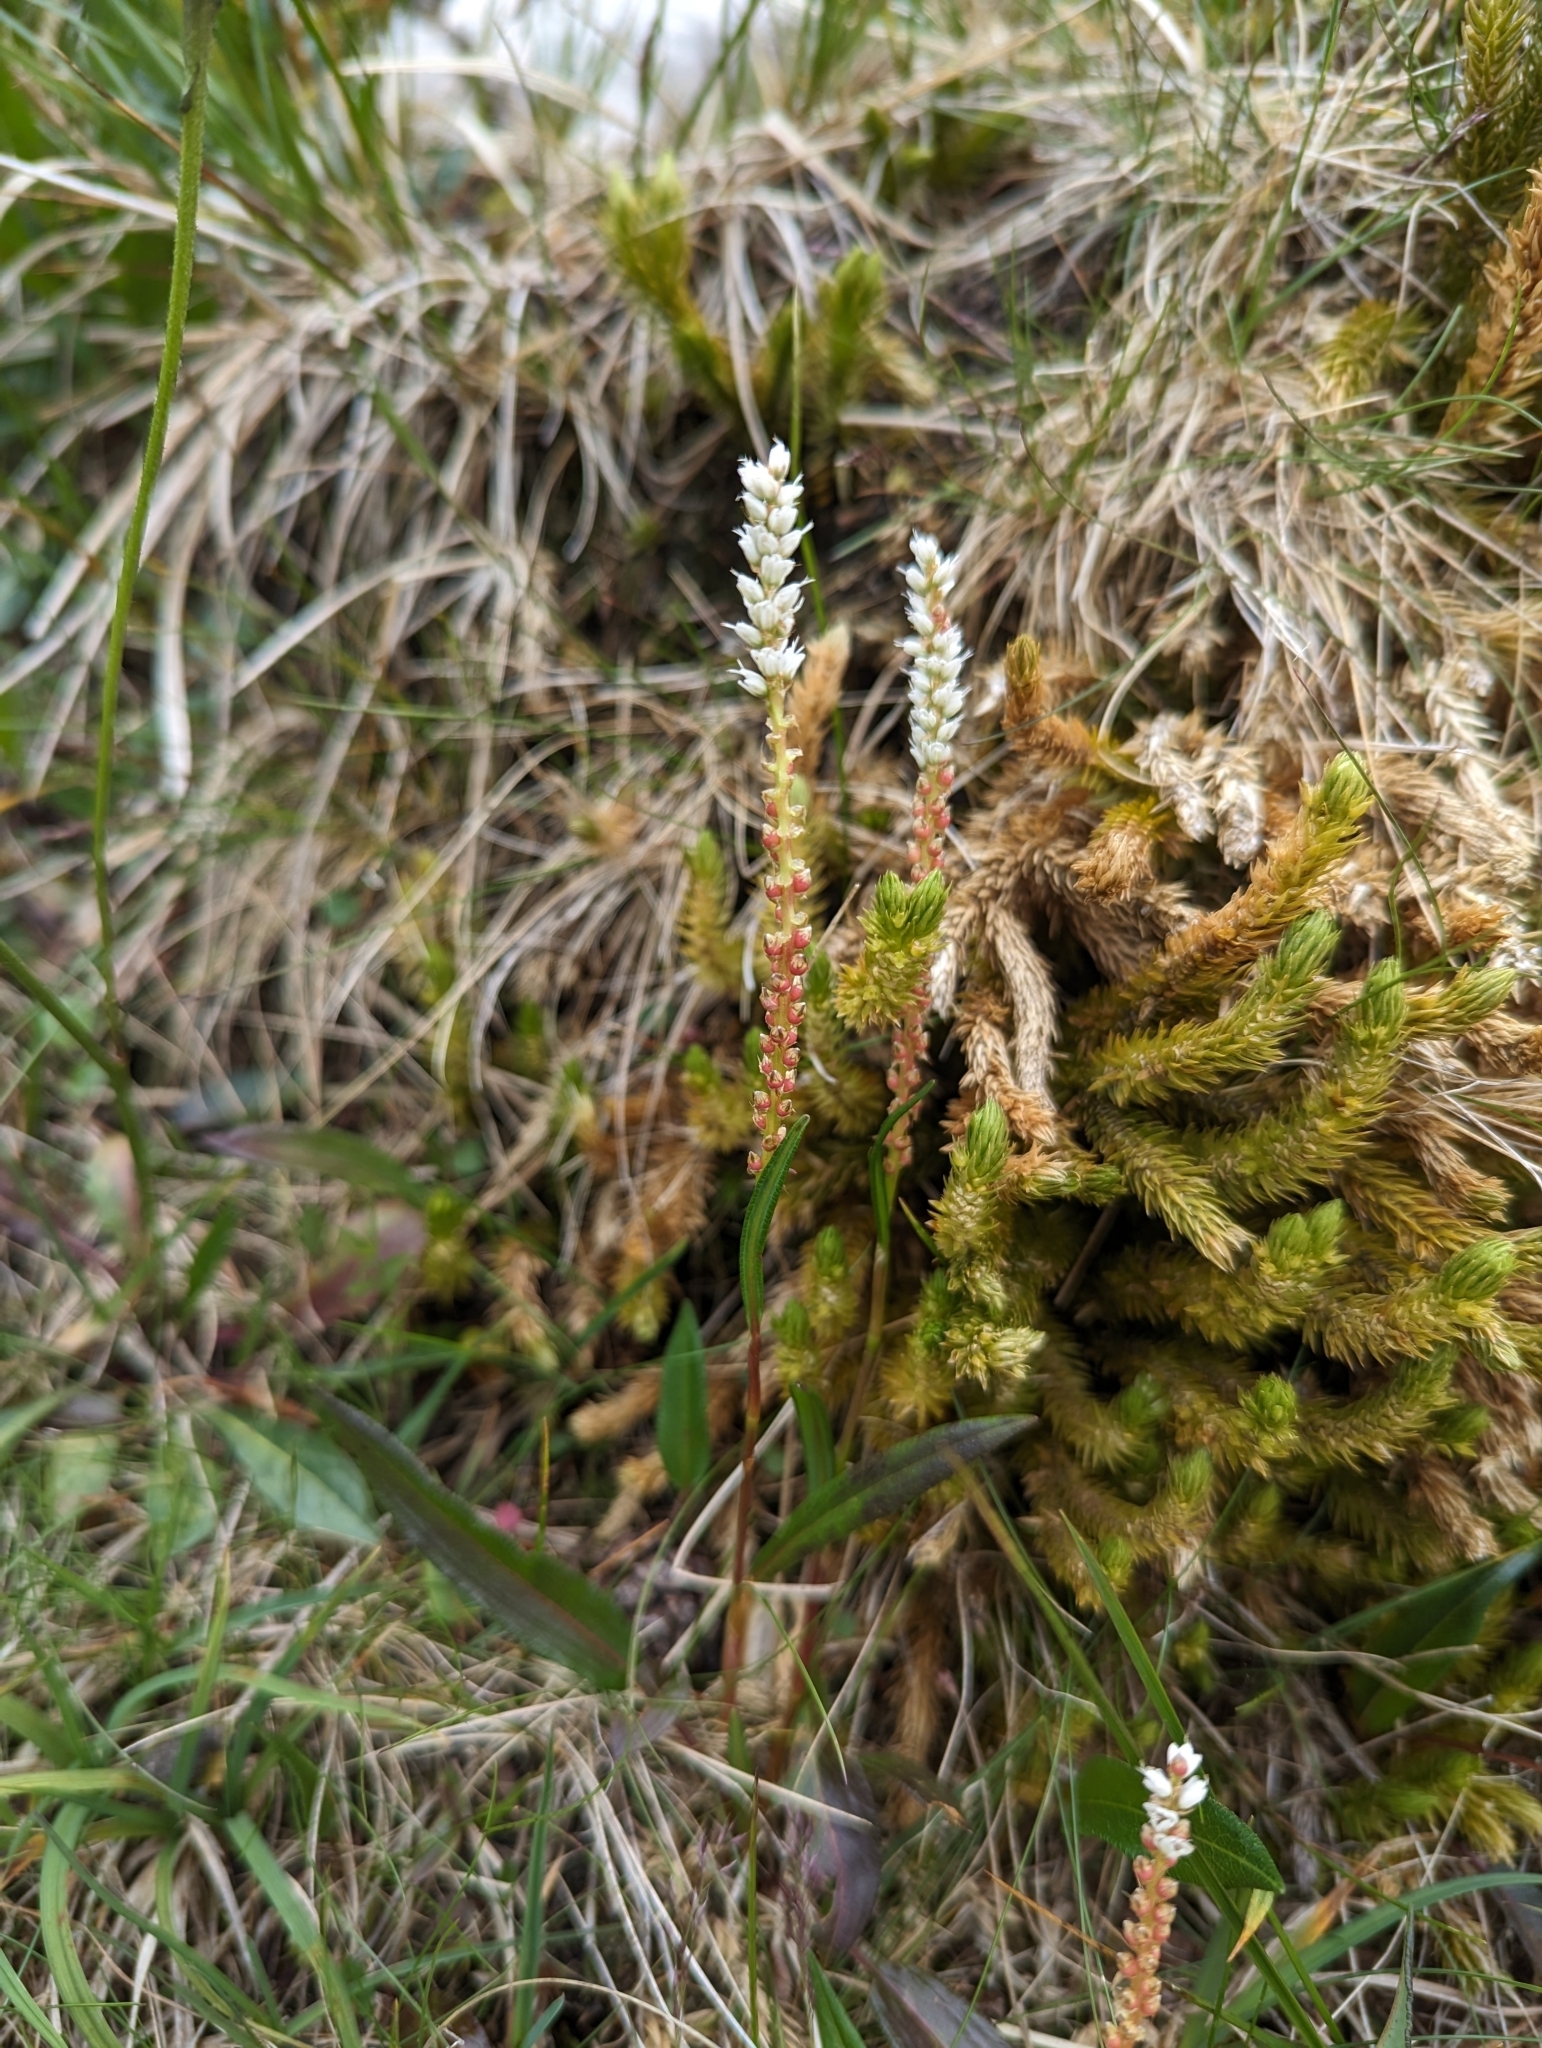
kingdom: Plantae
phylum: Tracheophyta
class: Magnoliopsida
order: Caryophyllales
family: Polygonaceae
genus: Bistorta
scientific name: Bistorta vivipara
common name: Alpine bistort
